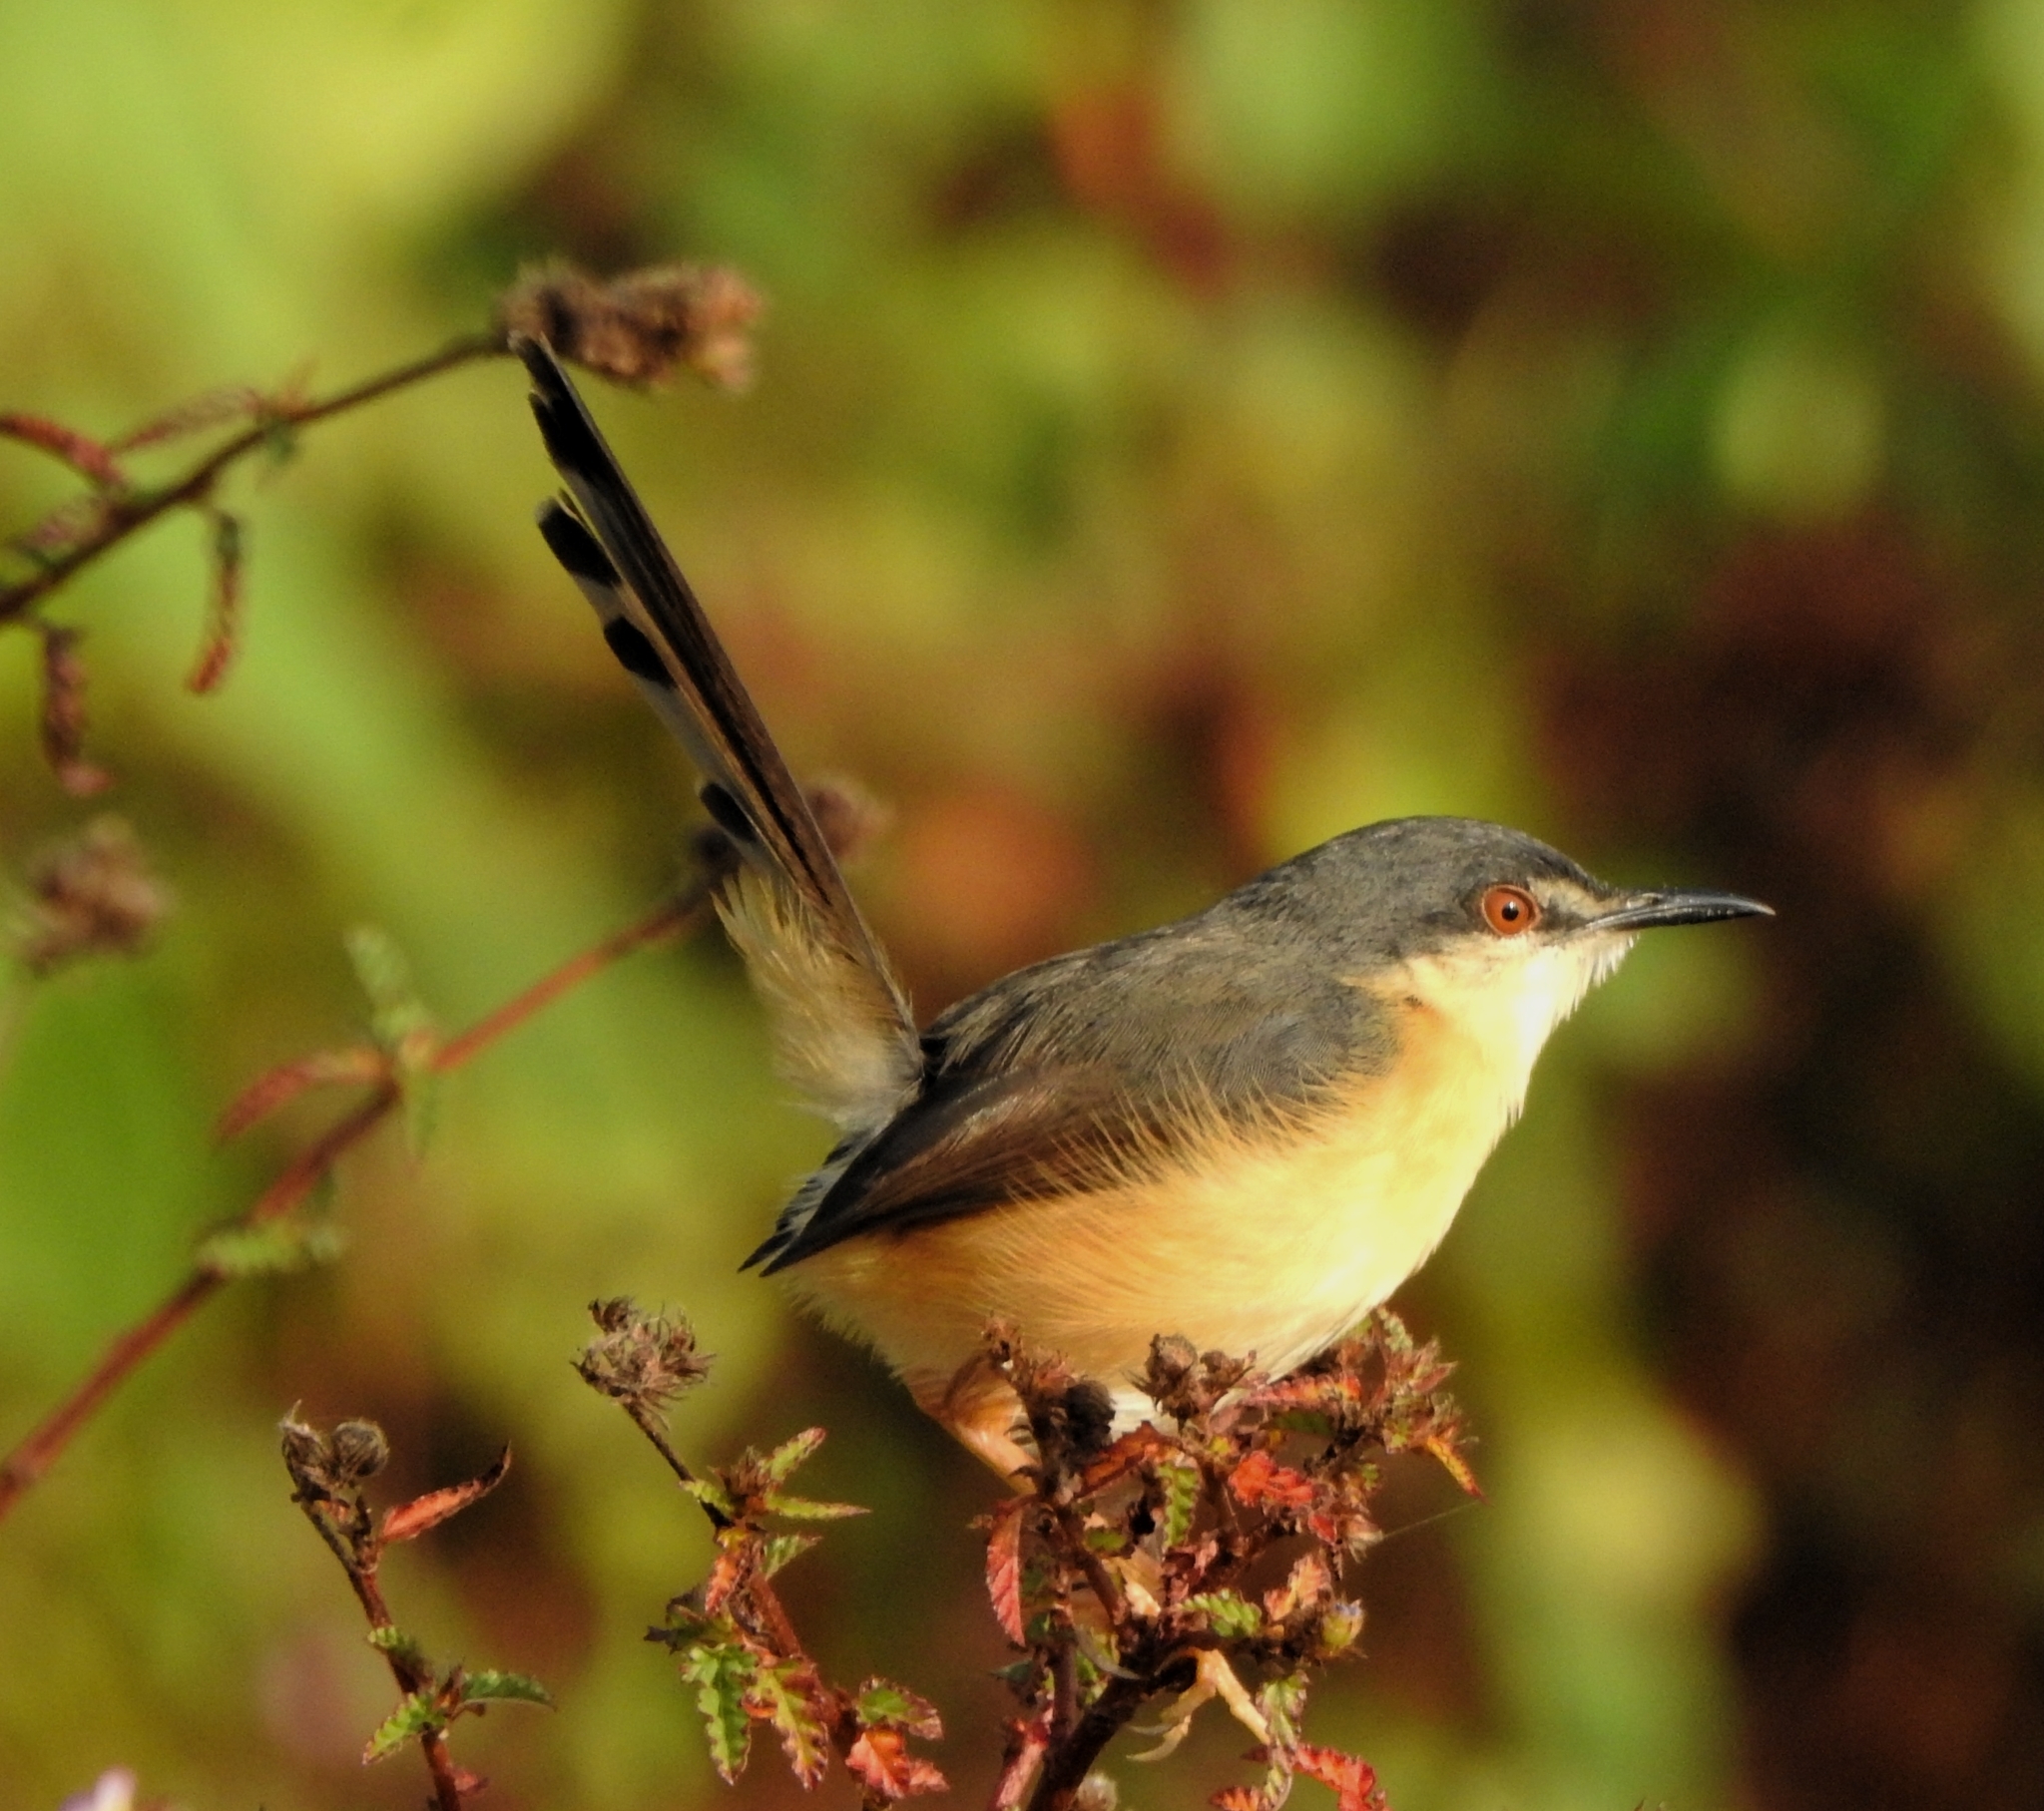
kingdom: Animalia
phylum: Chordata
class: Aves
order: Passeriformes
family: Cisticolidae
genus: Prinia
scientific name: Prinia socialis
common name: Ashy prinia
